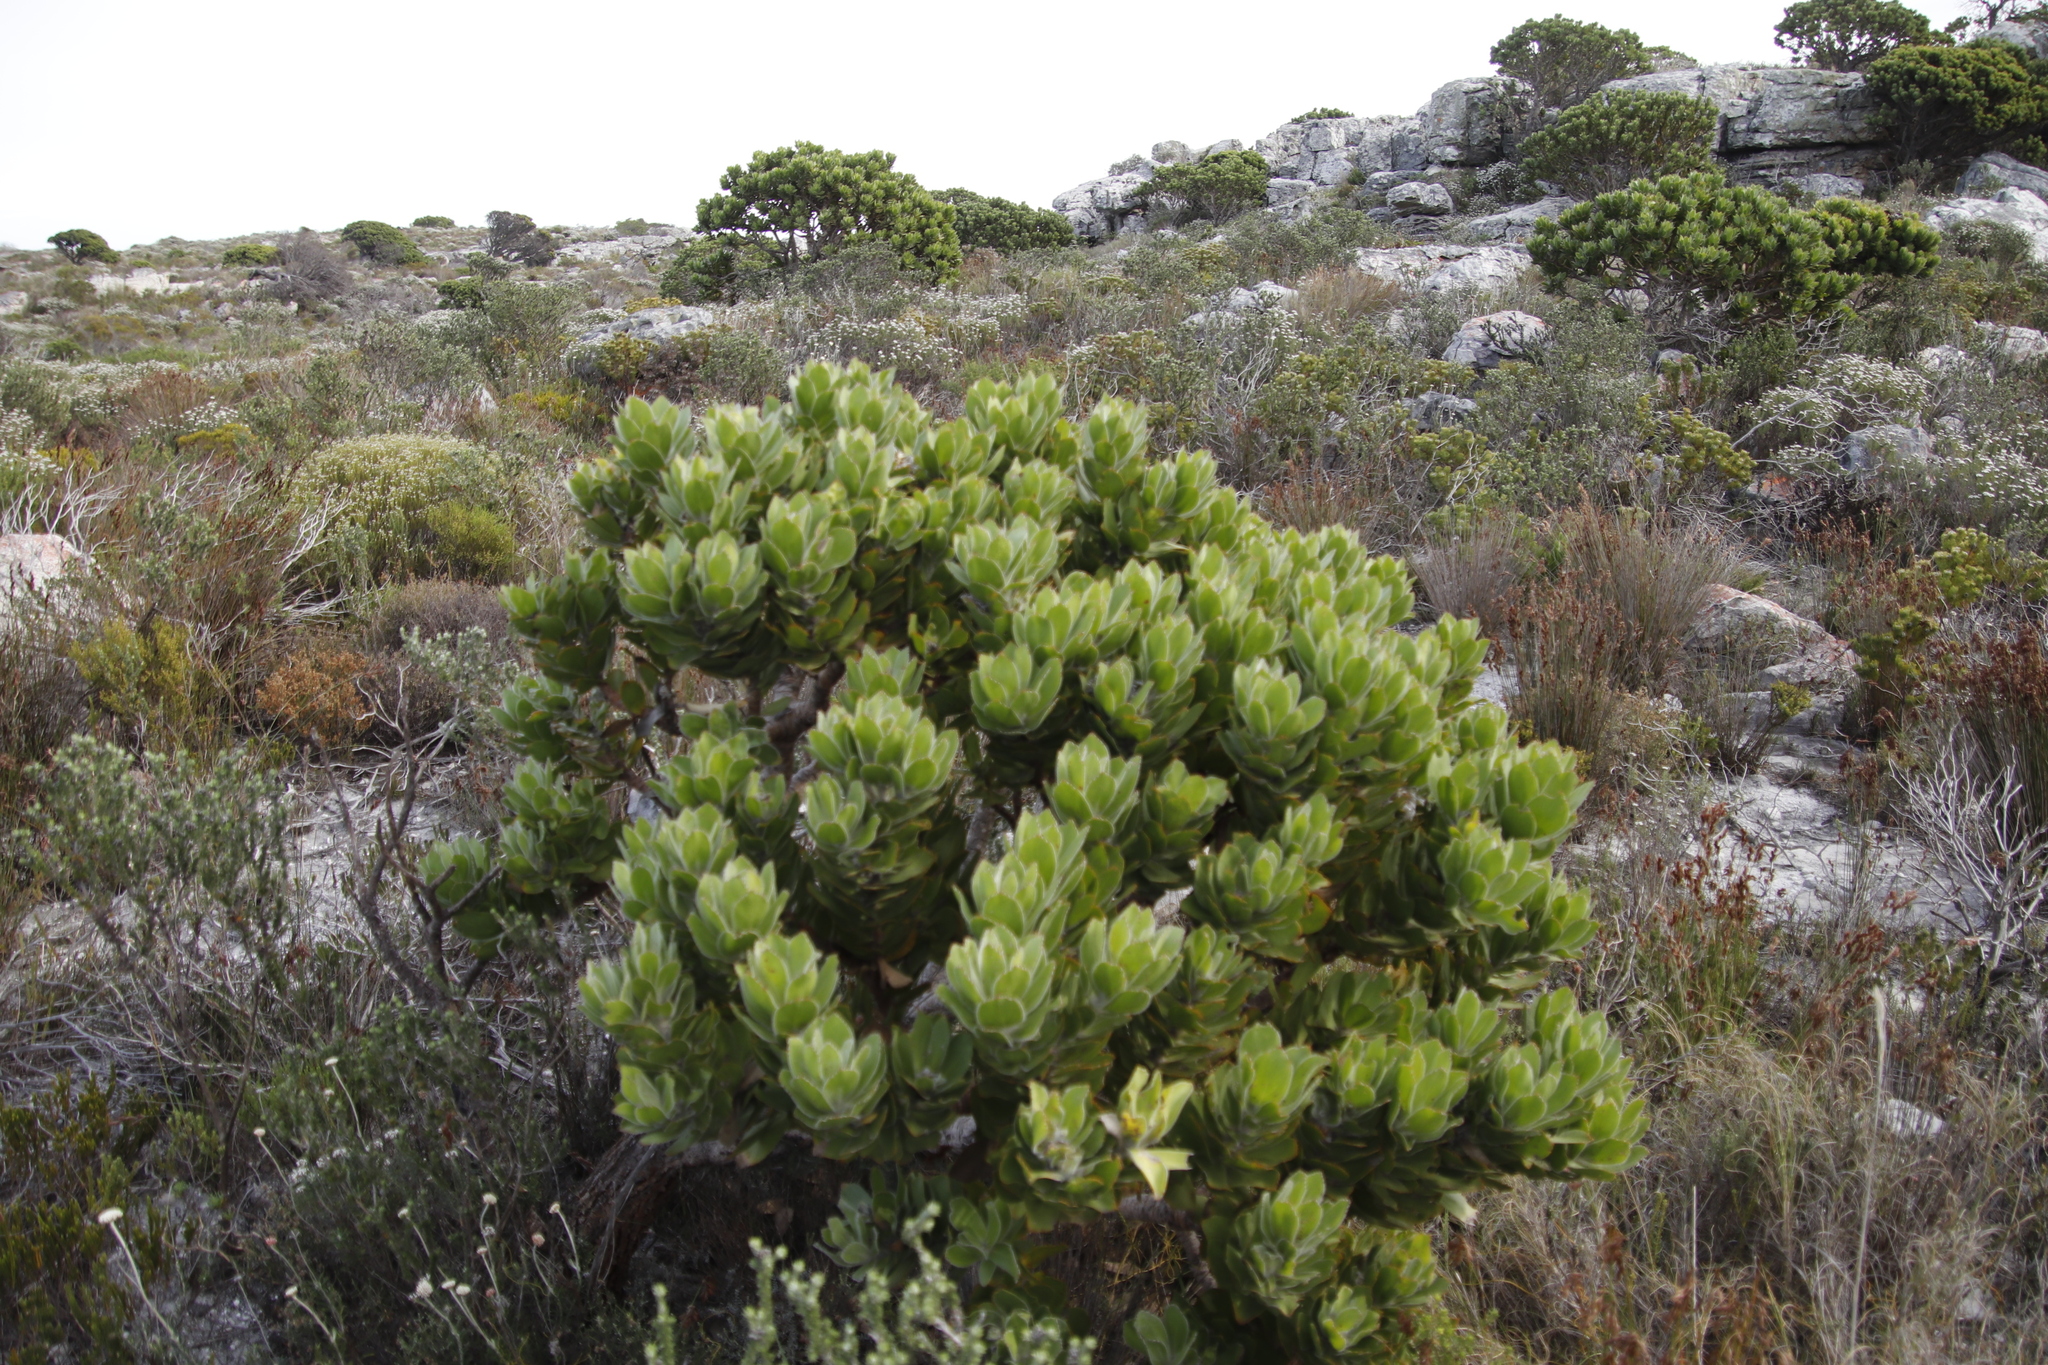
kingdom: Plantae
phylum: Tracheophyta
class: Magnoliopsida
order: Proteales
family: Proteaceae
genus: Leucospermum
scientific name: Leucospermum conocarpodendron
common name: Tree pincushion
